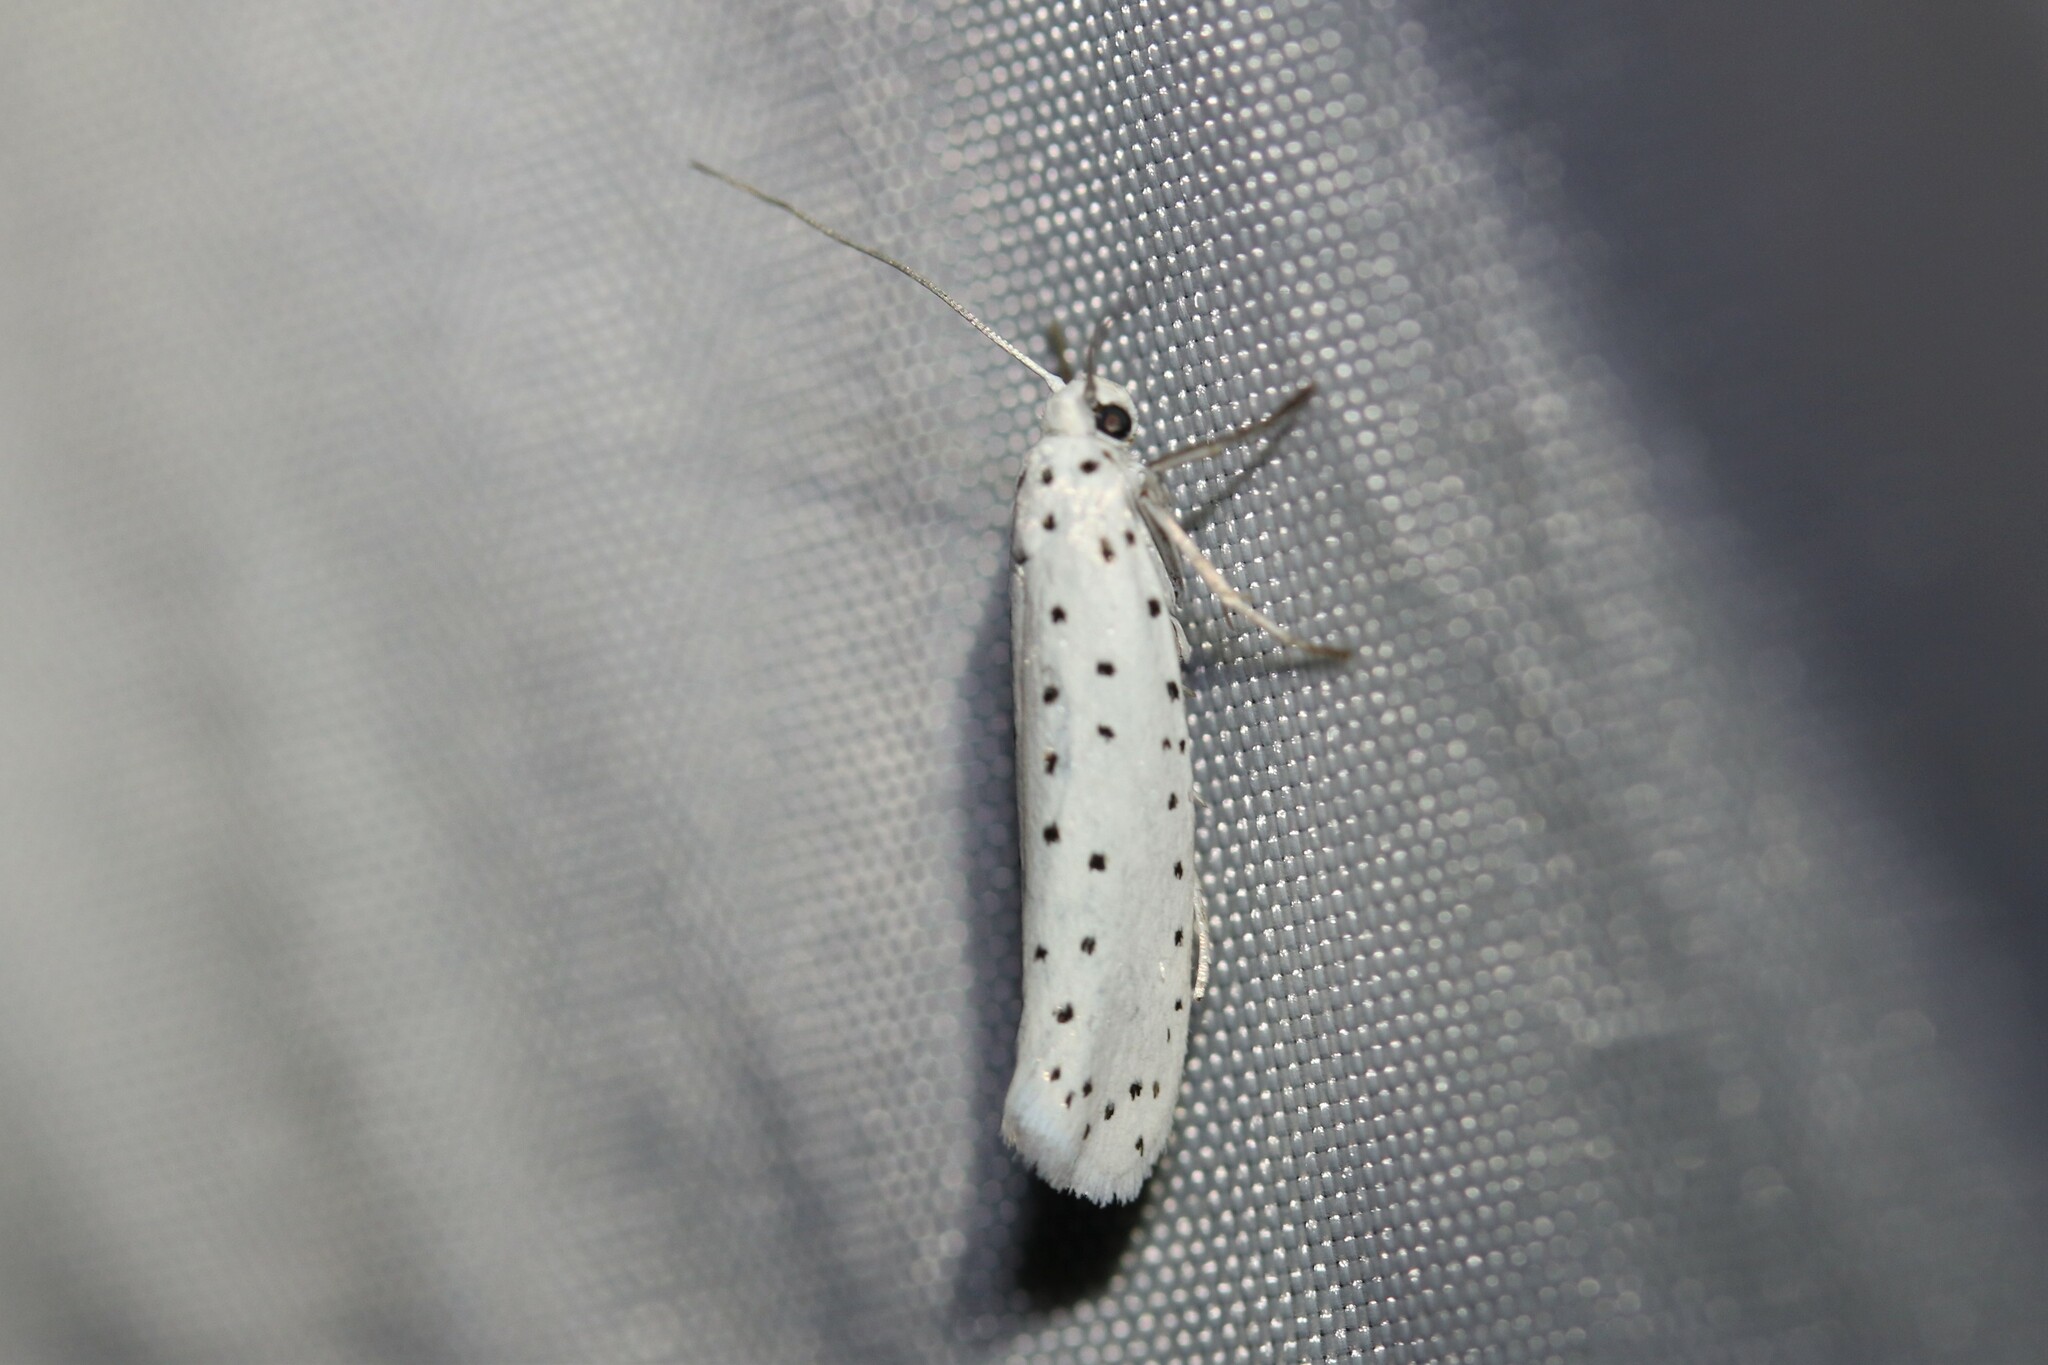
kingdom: Animalia
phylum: Arthropoda
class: Insecta
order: Lepidoptera
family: Yponomeutidae
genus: Yponomeuta
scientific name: Yponomeuta
